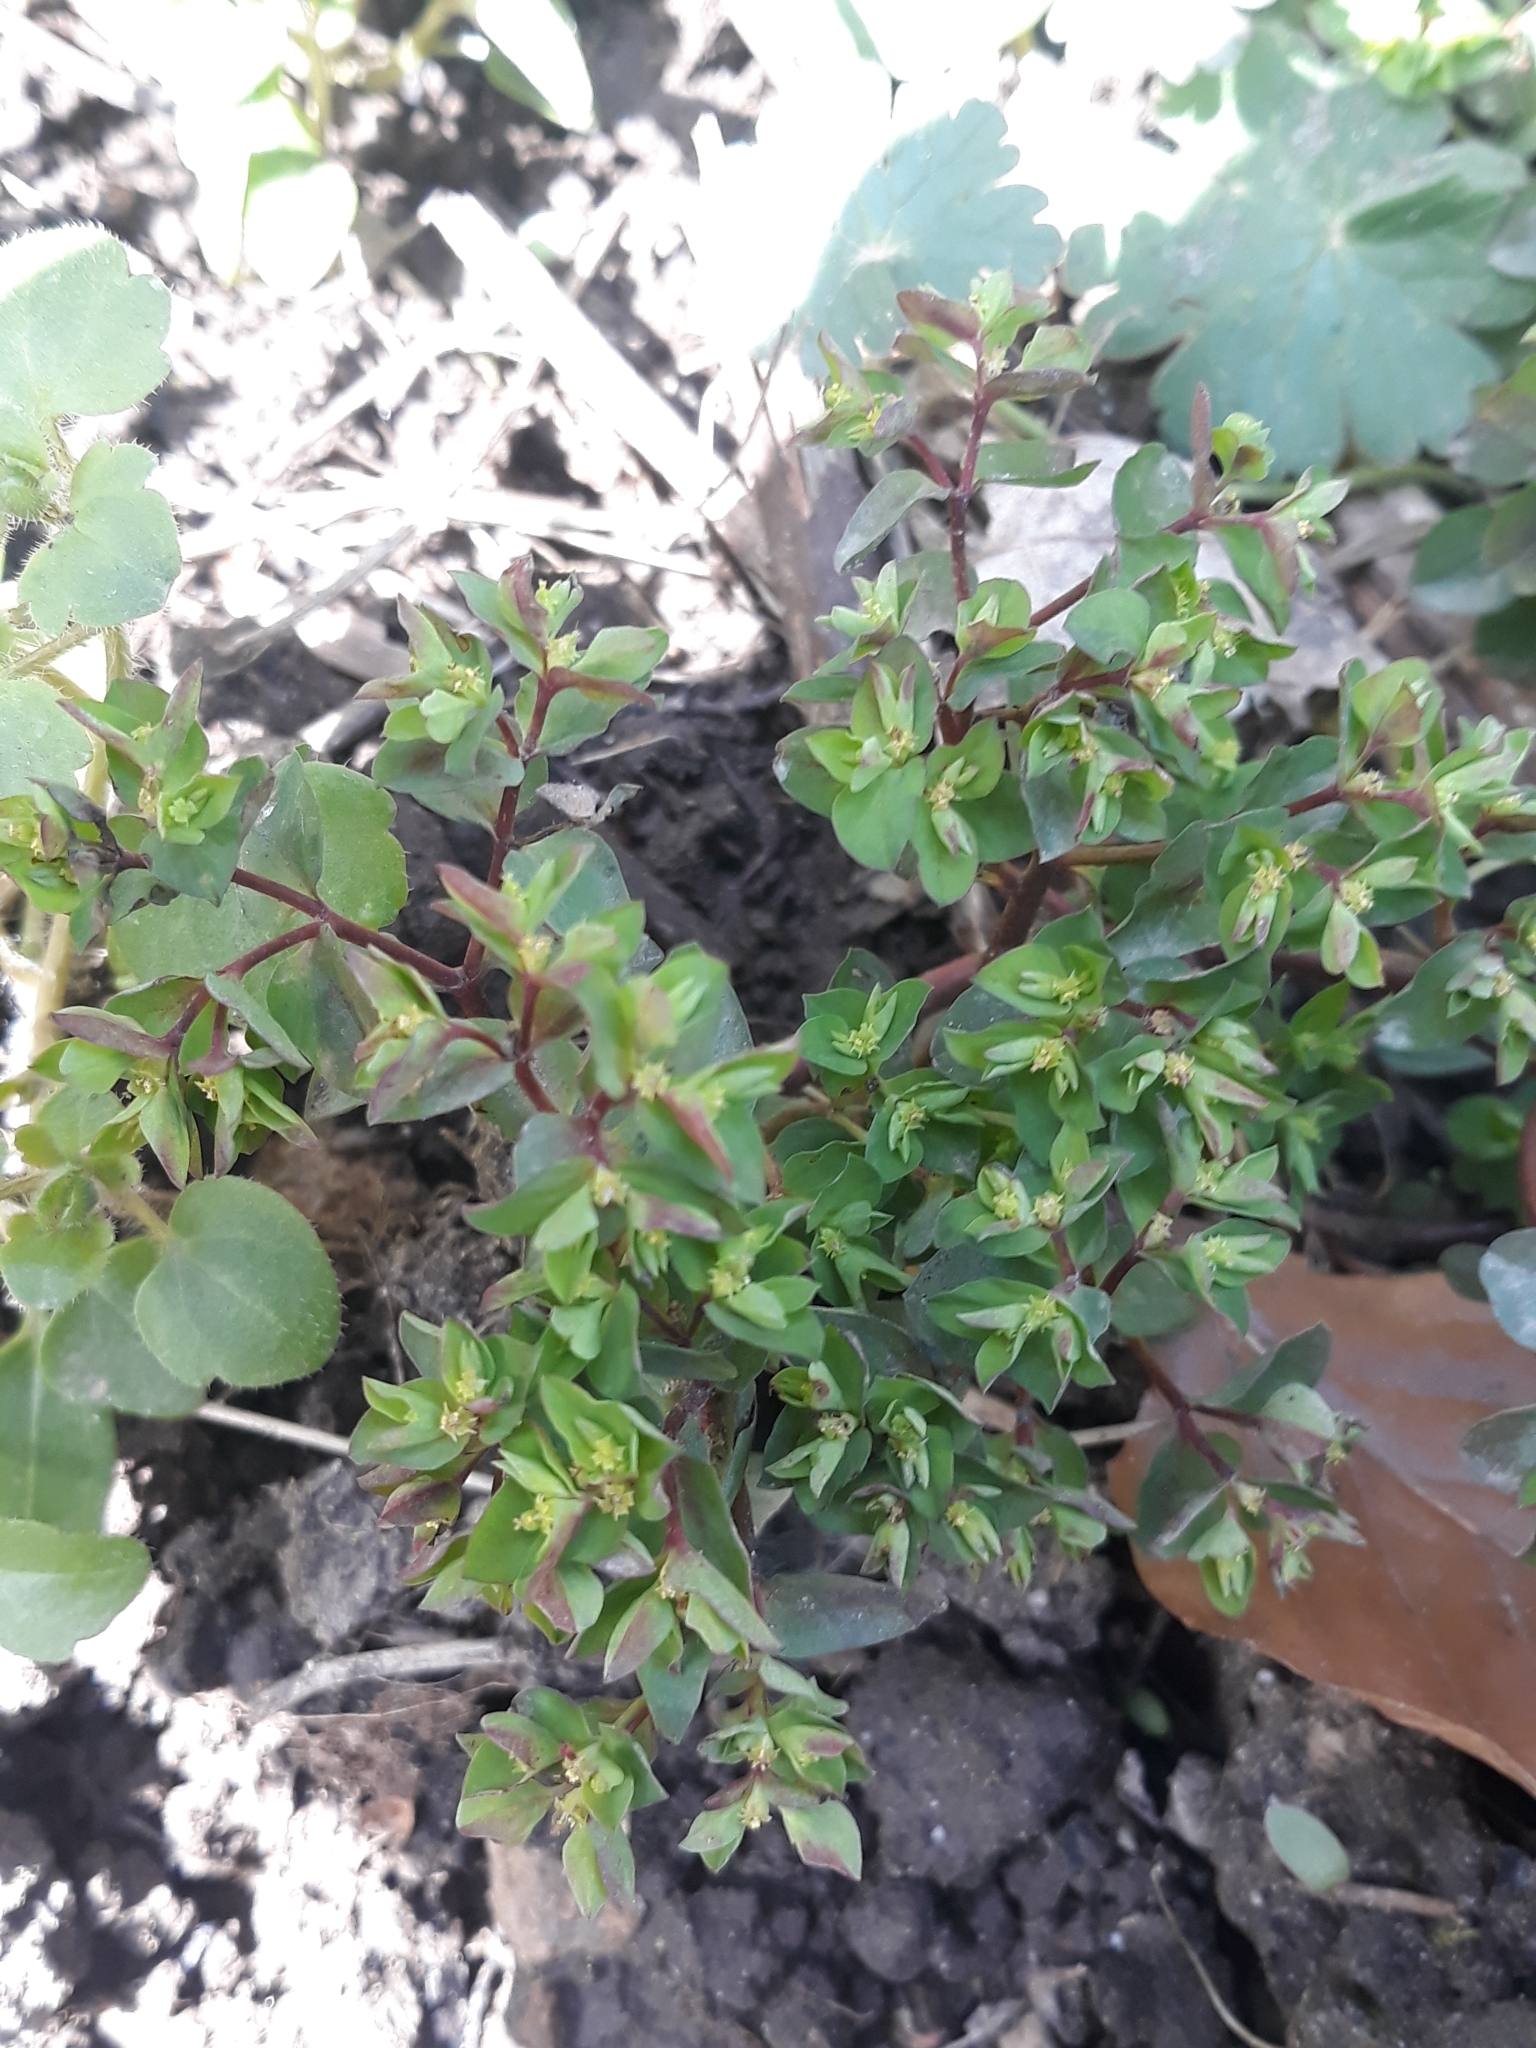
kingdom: Plantae
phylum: Tracheophyta
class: Magnoliopsida
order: Malpighiales
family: Euphorbiaceae
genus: Euphorbia
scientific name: Euphorbia peplus
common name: Petty spurge
